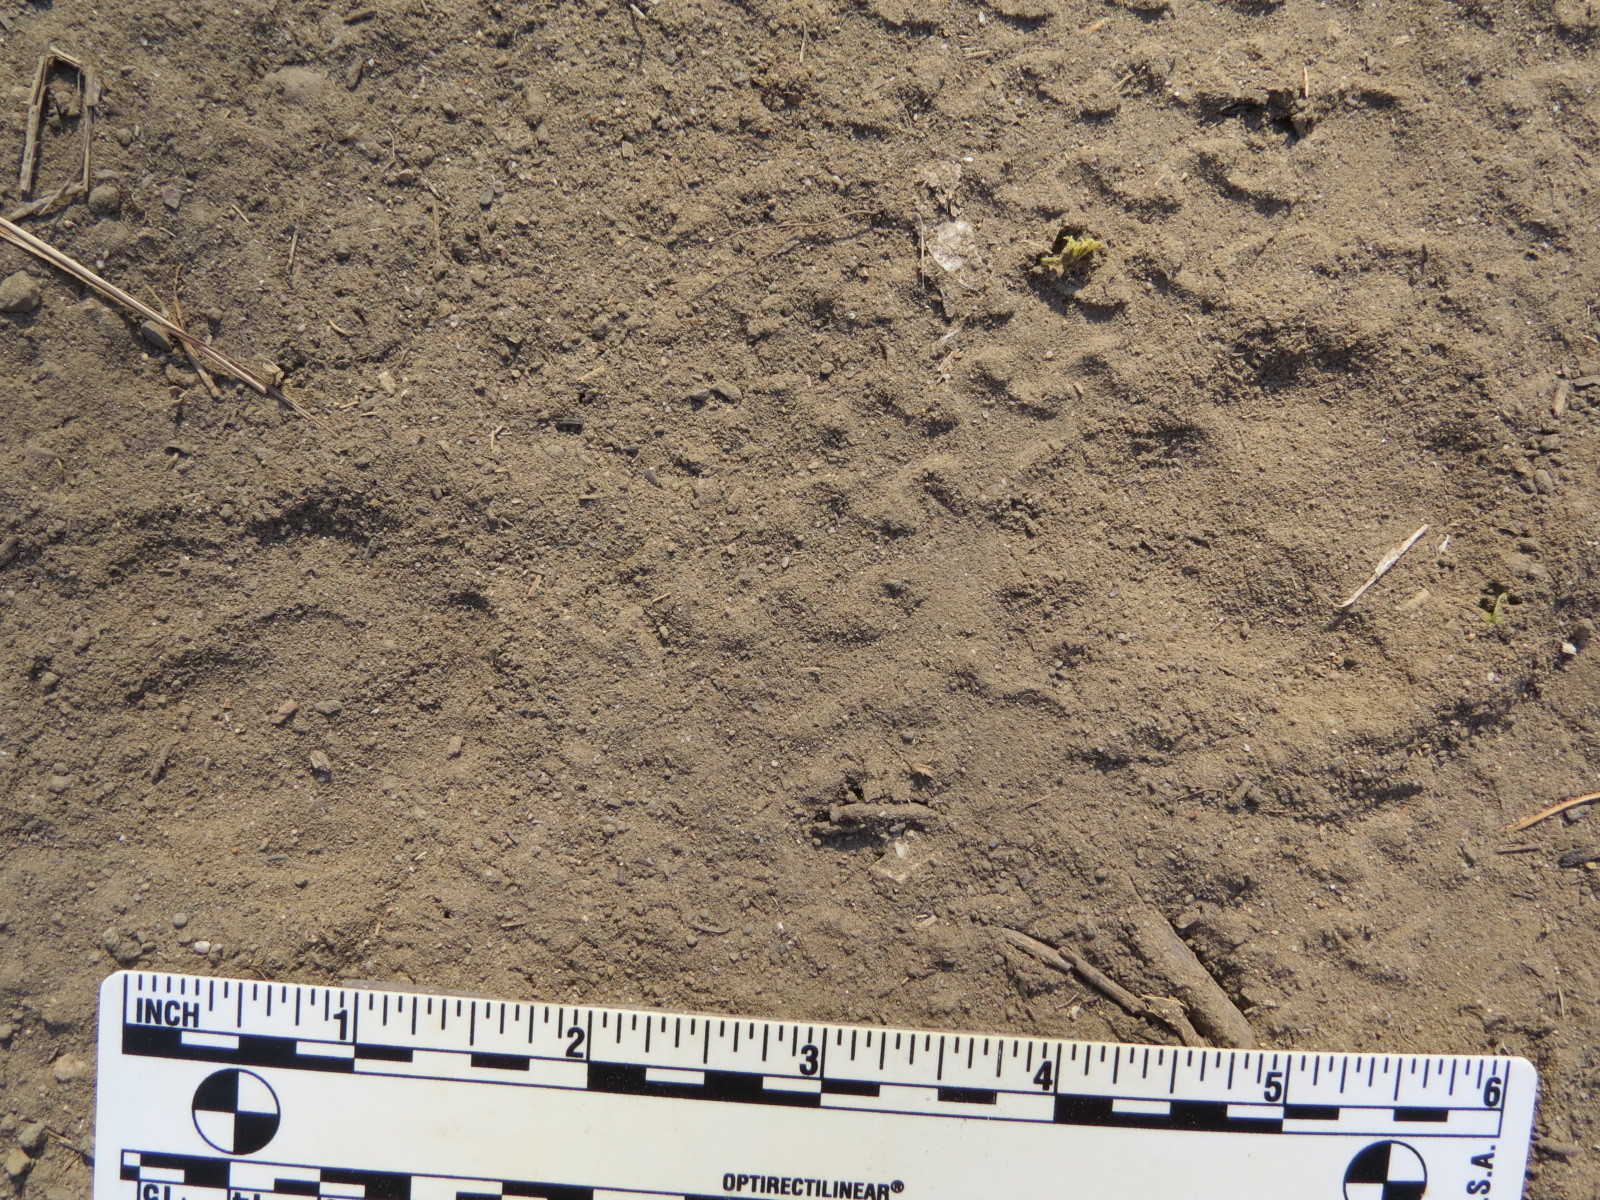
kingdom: Animalia
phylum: Chordata
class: Mammalia
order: Carnivora
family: Canidae
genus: Urocyon
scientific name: Urocyon cinereoargenteus
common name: Gray fox
